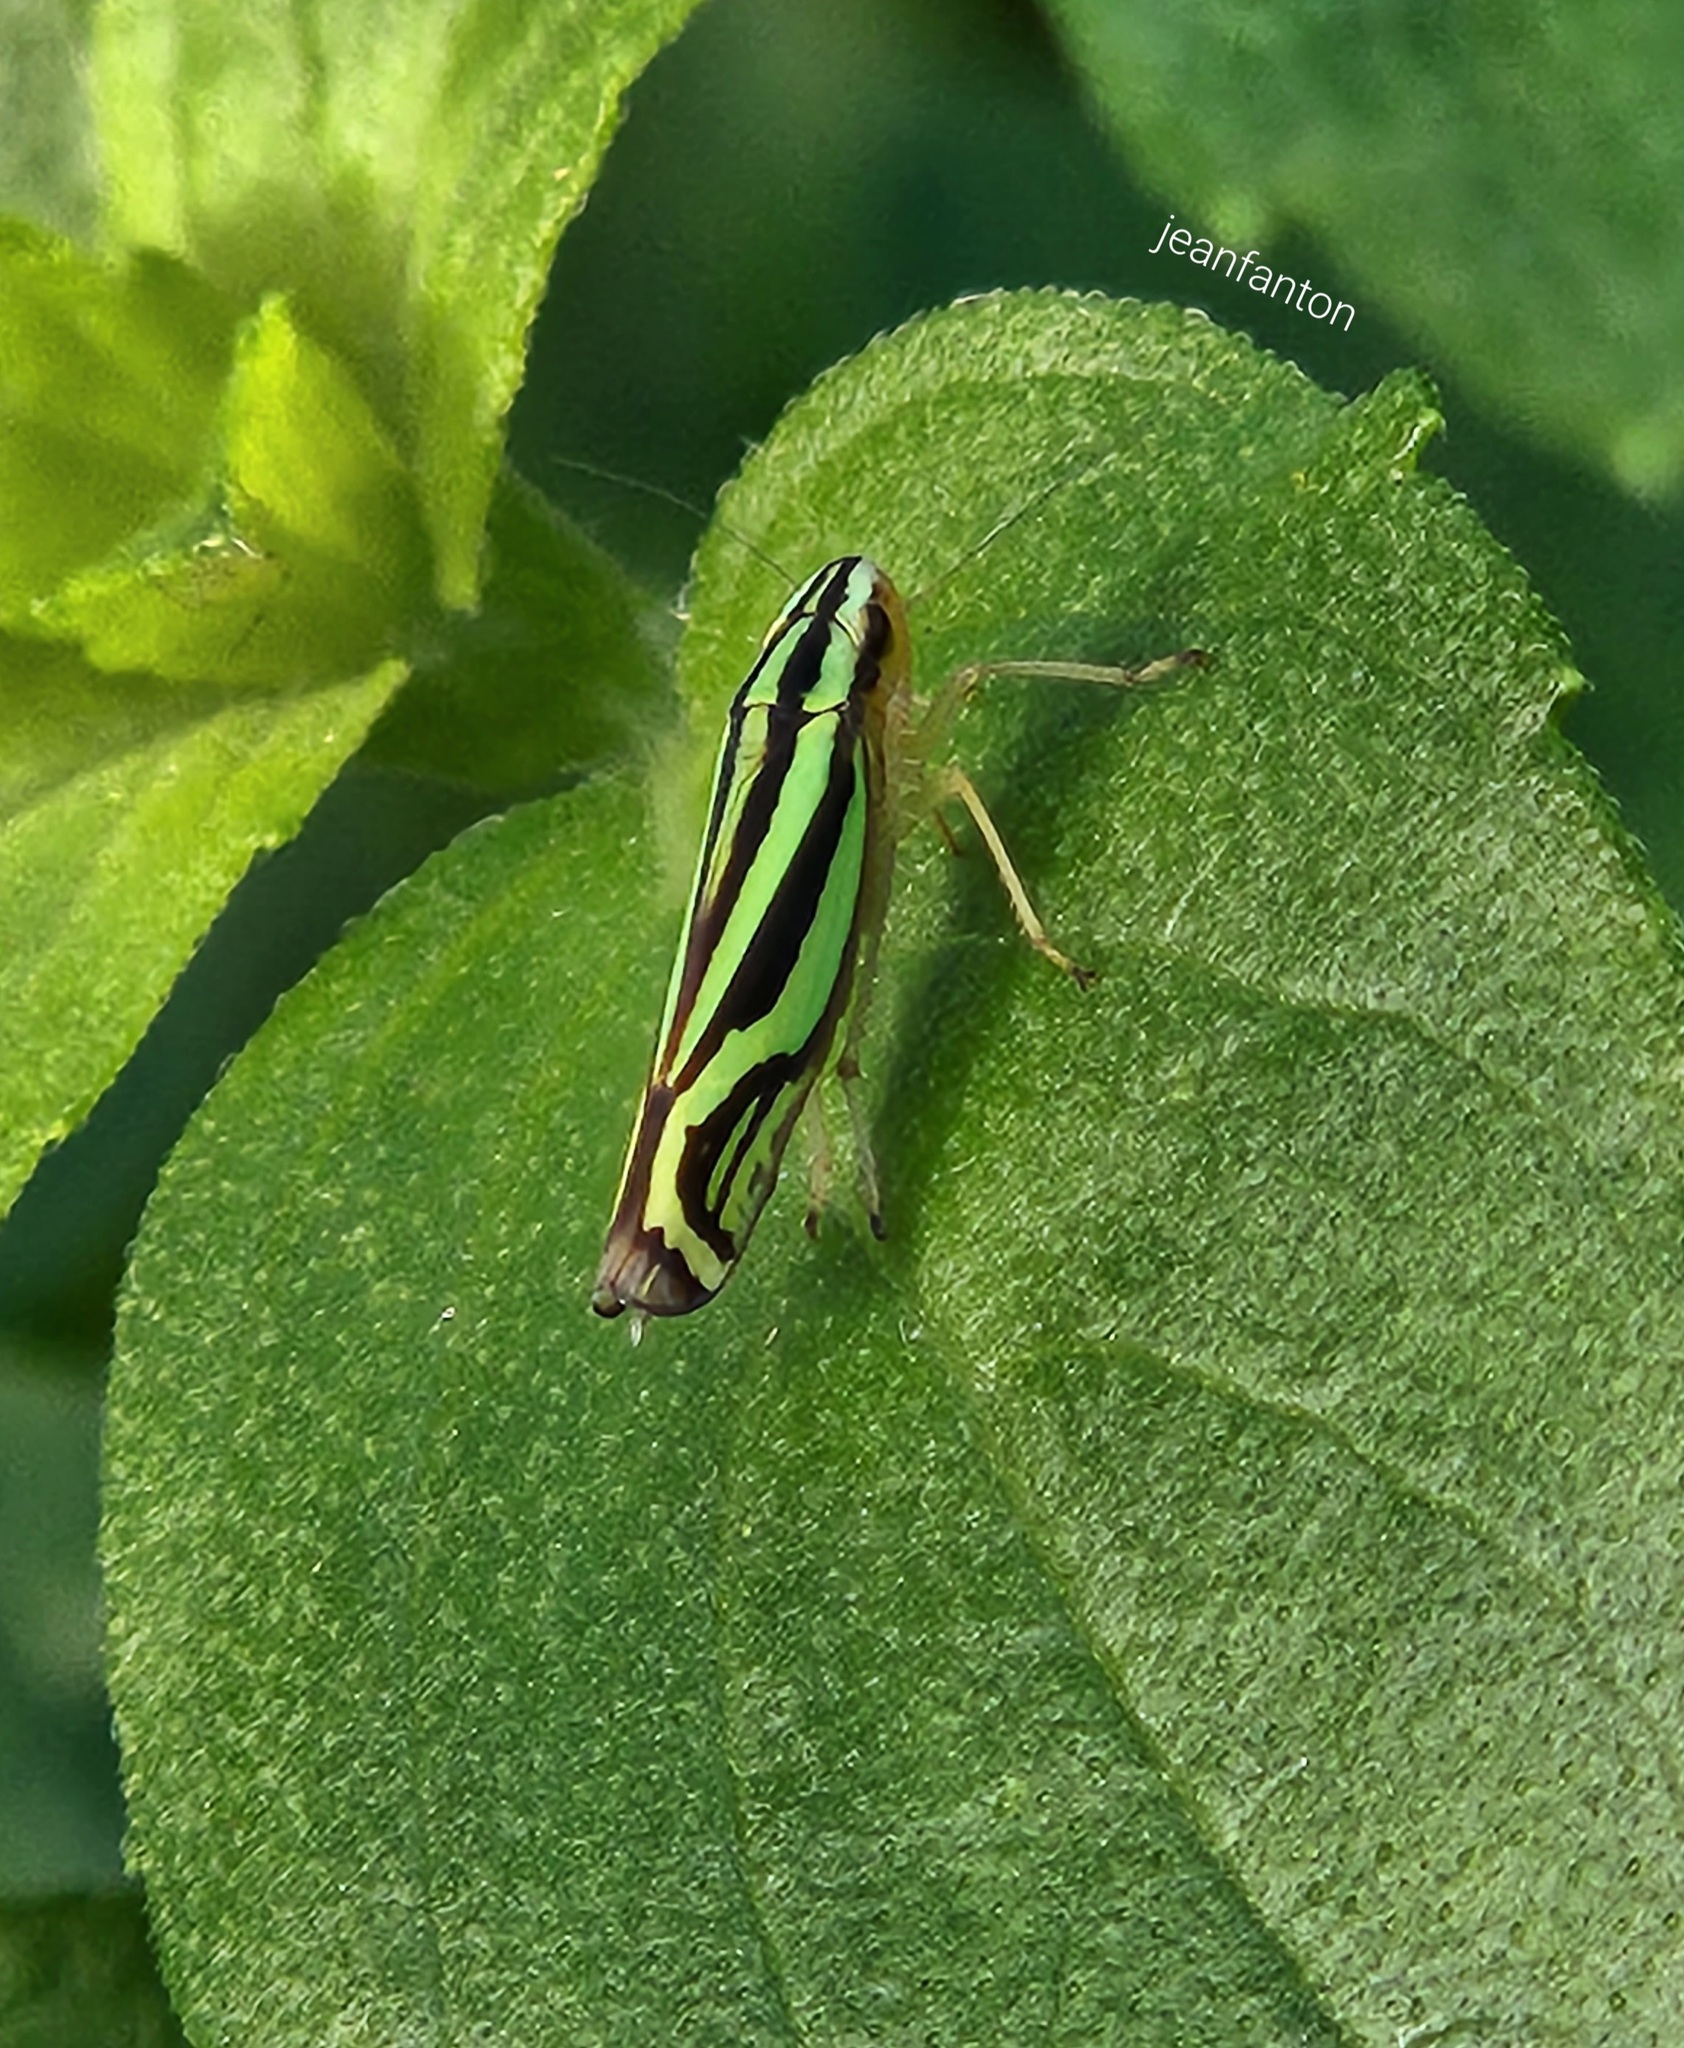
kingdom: Animalia
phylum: Arthropoda
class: Insecta
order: Hemiptera
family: Cicadellidae
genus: Sibovia
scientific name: Sibovia sagata
